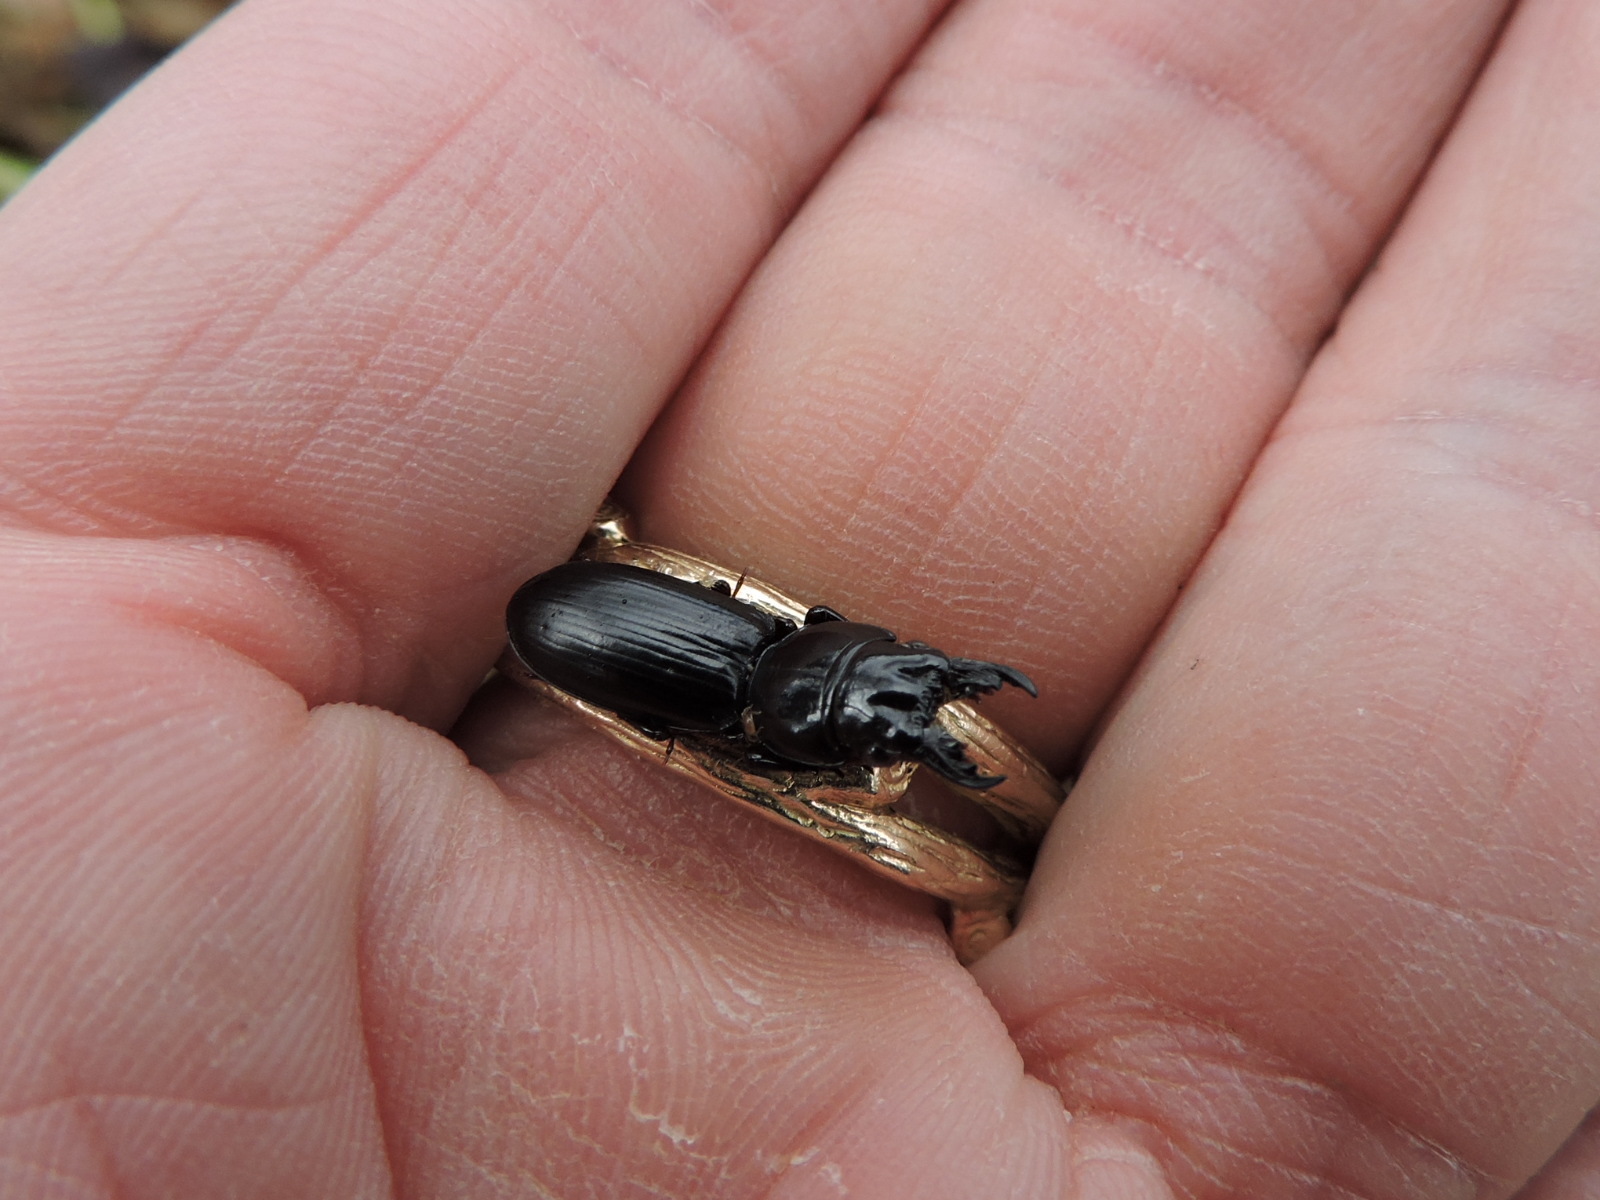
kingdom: Animalia
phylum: Arthropoda
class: Insecta
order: Coleoptera
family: Carabidae
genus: Scarites
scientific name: Scarites subterraneus
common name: Big-headed ground beetle
